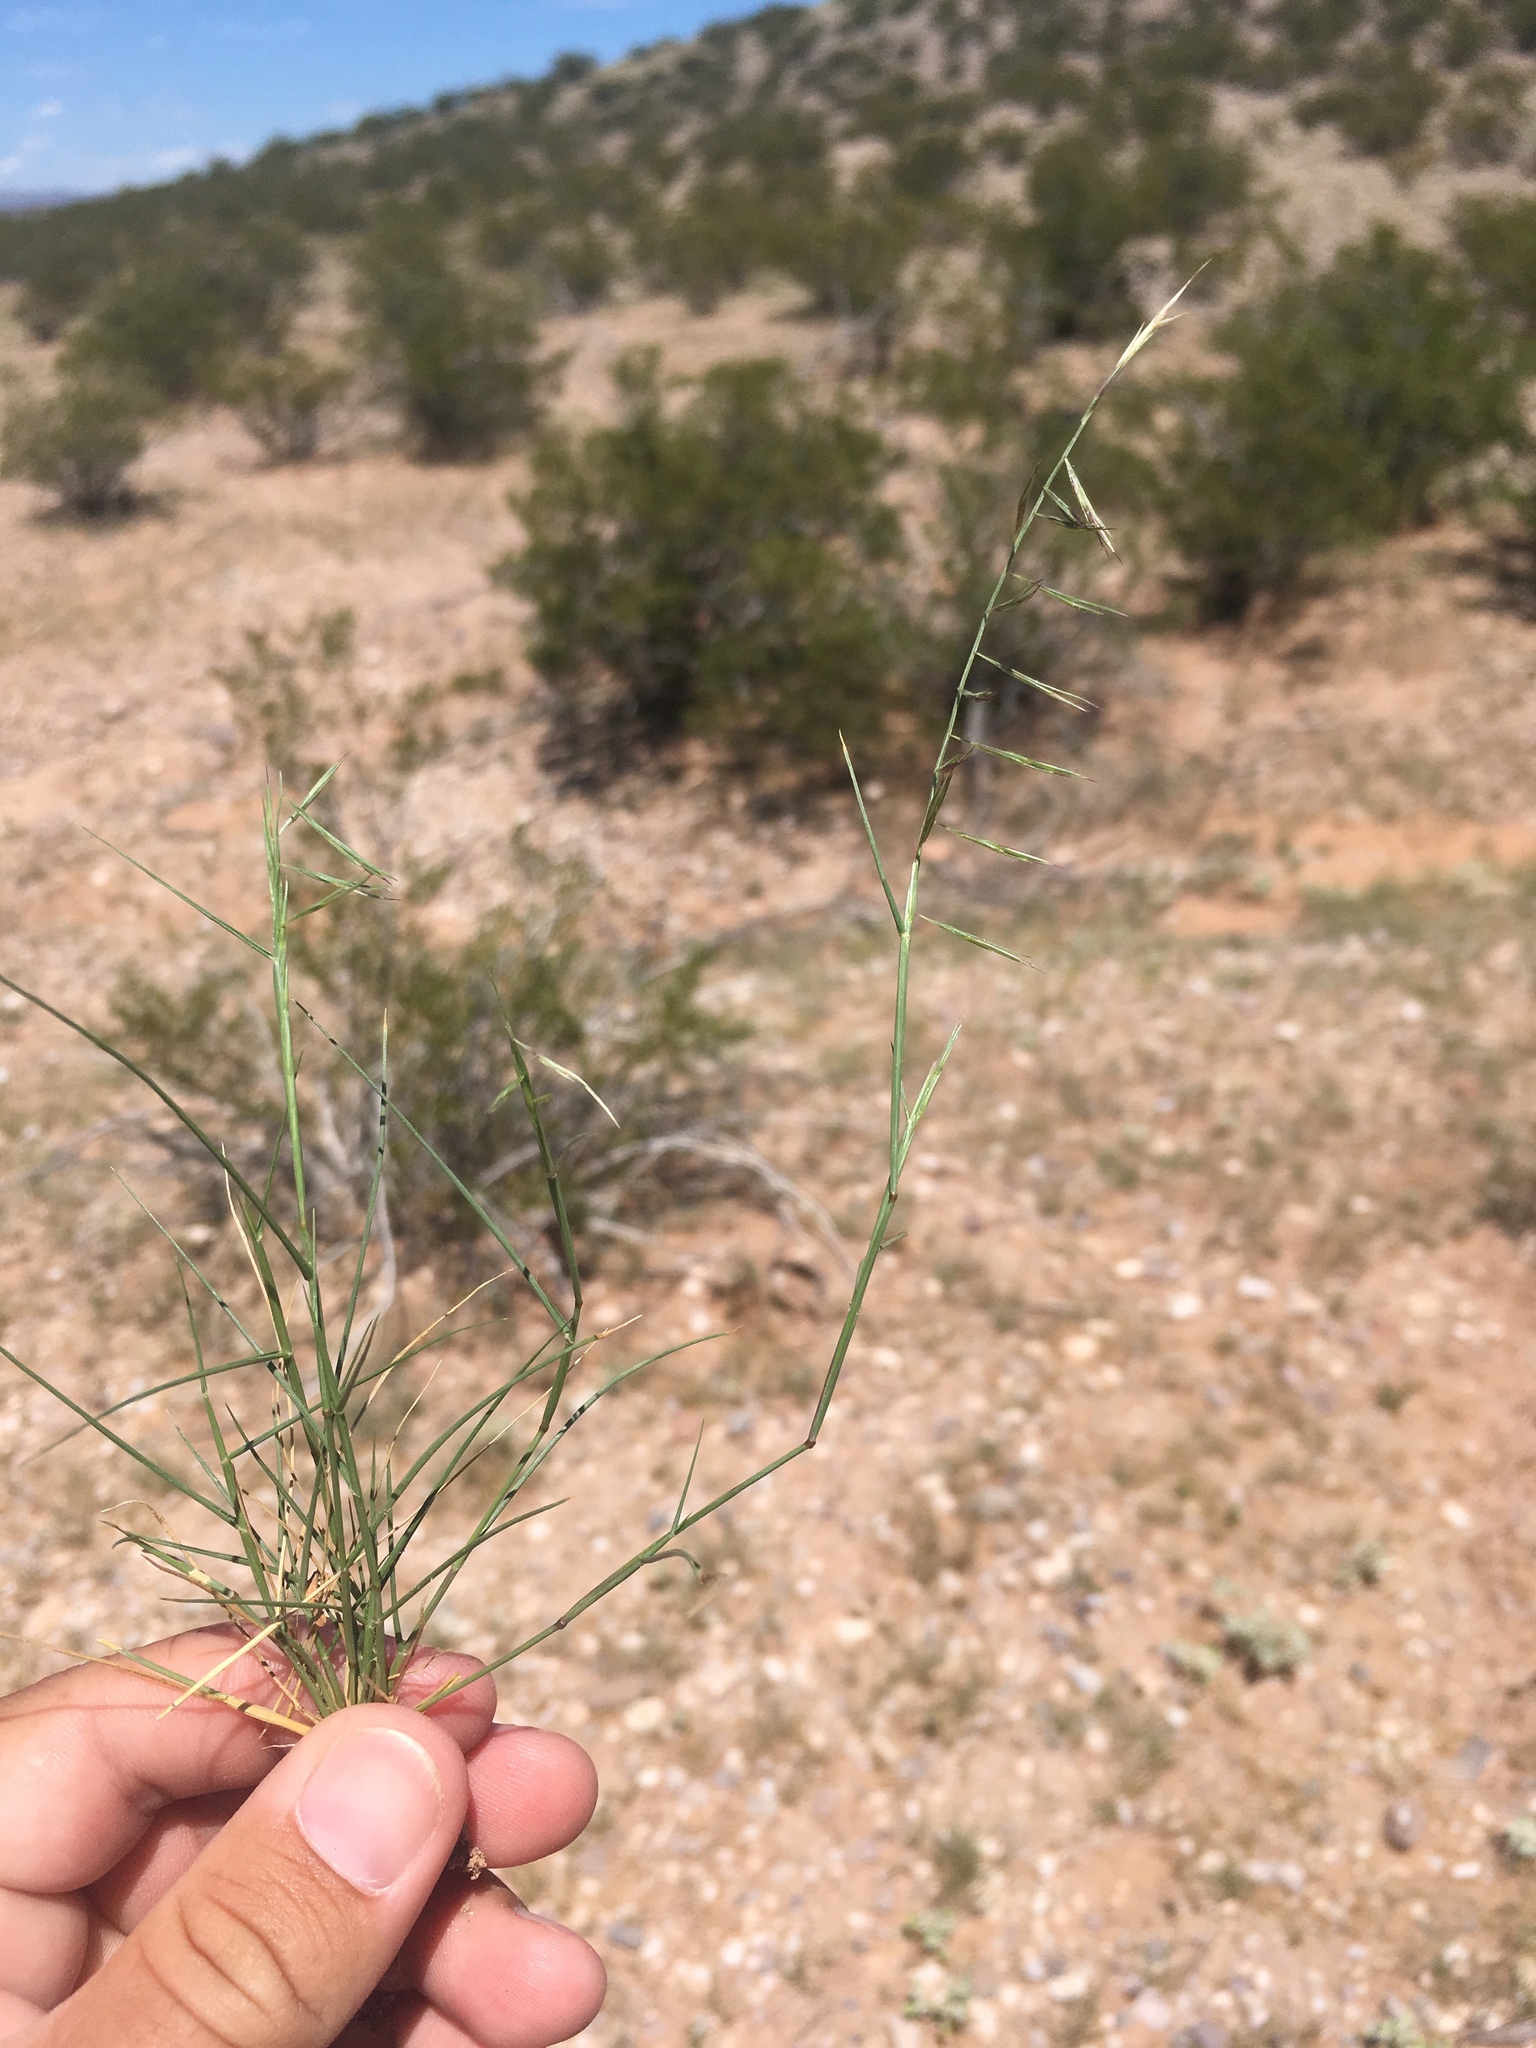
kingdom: Plantae
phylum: Tracheophyta
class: Liliopsida
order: Poales
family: Poaceae
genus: Bouteloua
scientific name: Bouteloua aristidoides
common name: Needle grama
